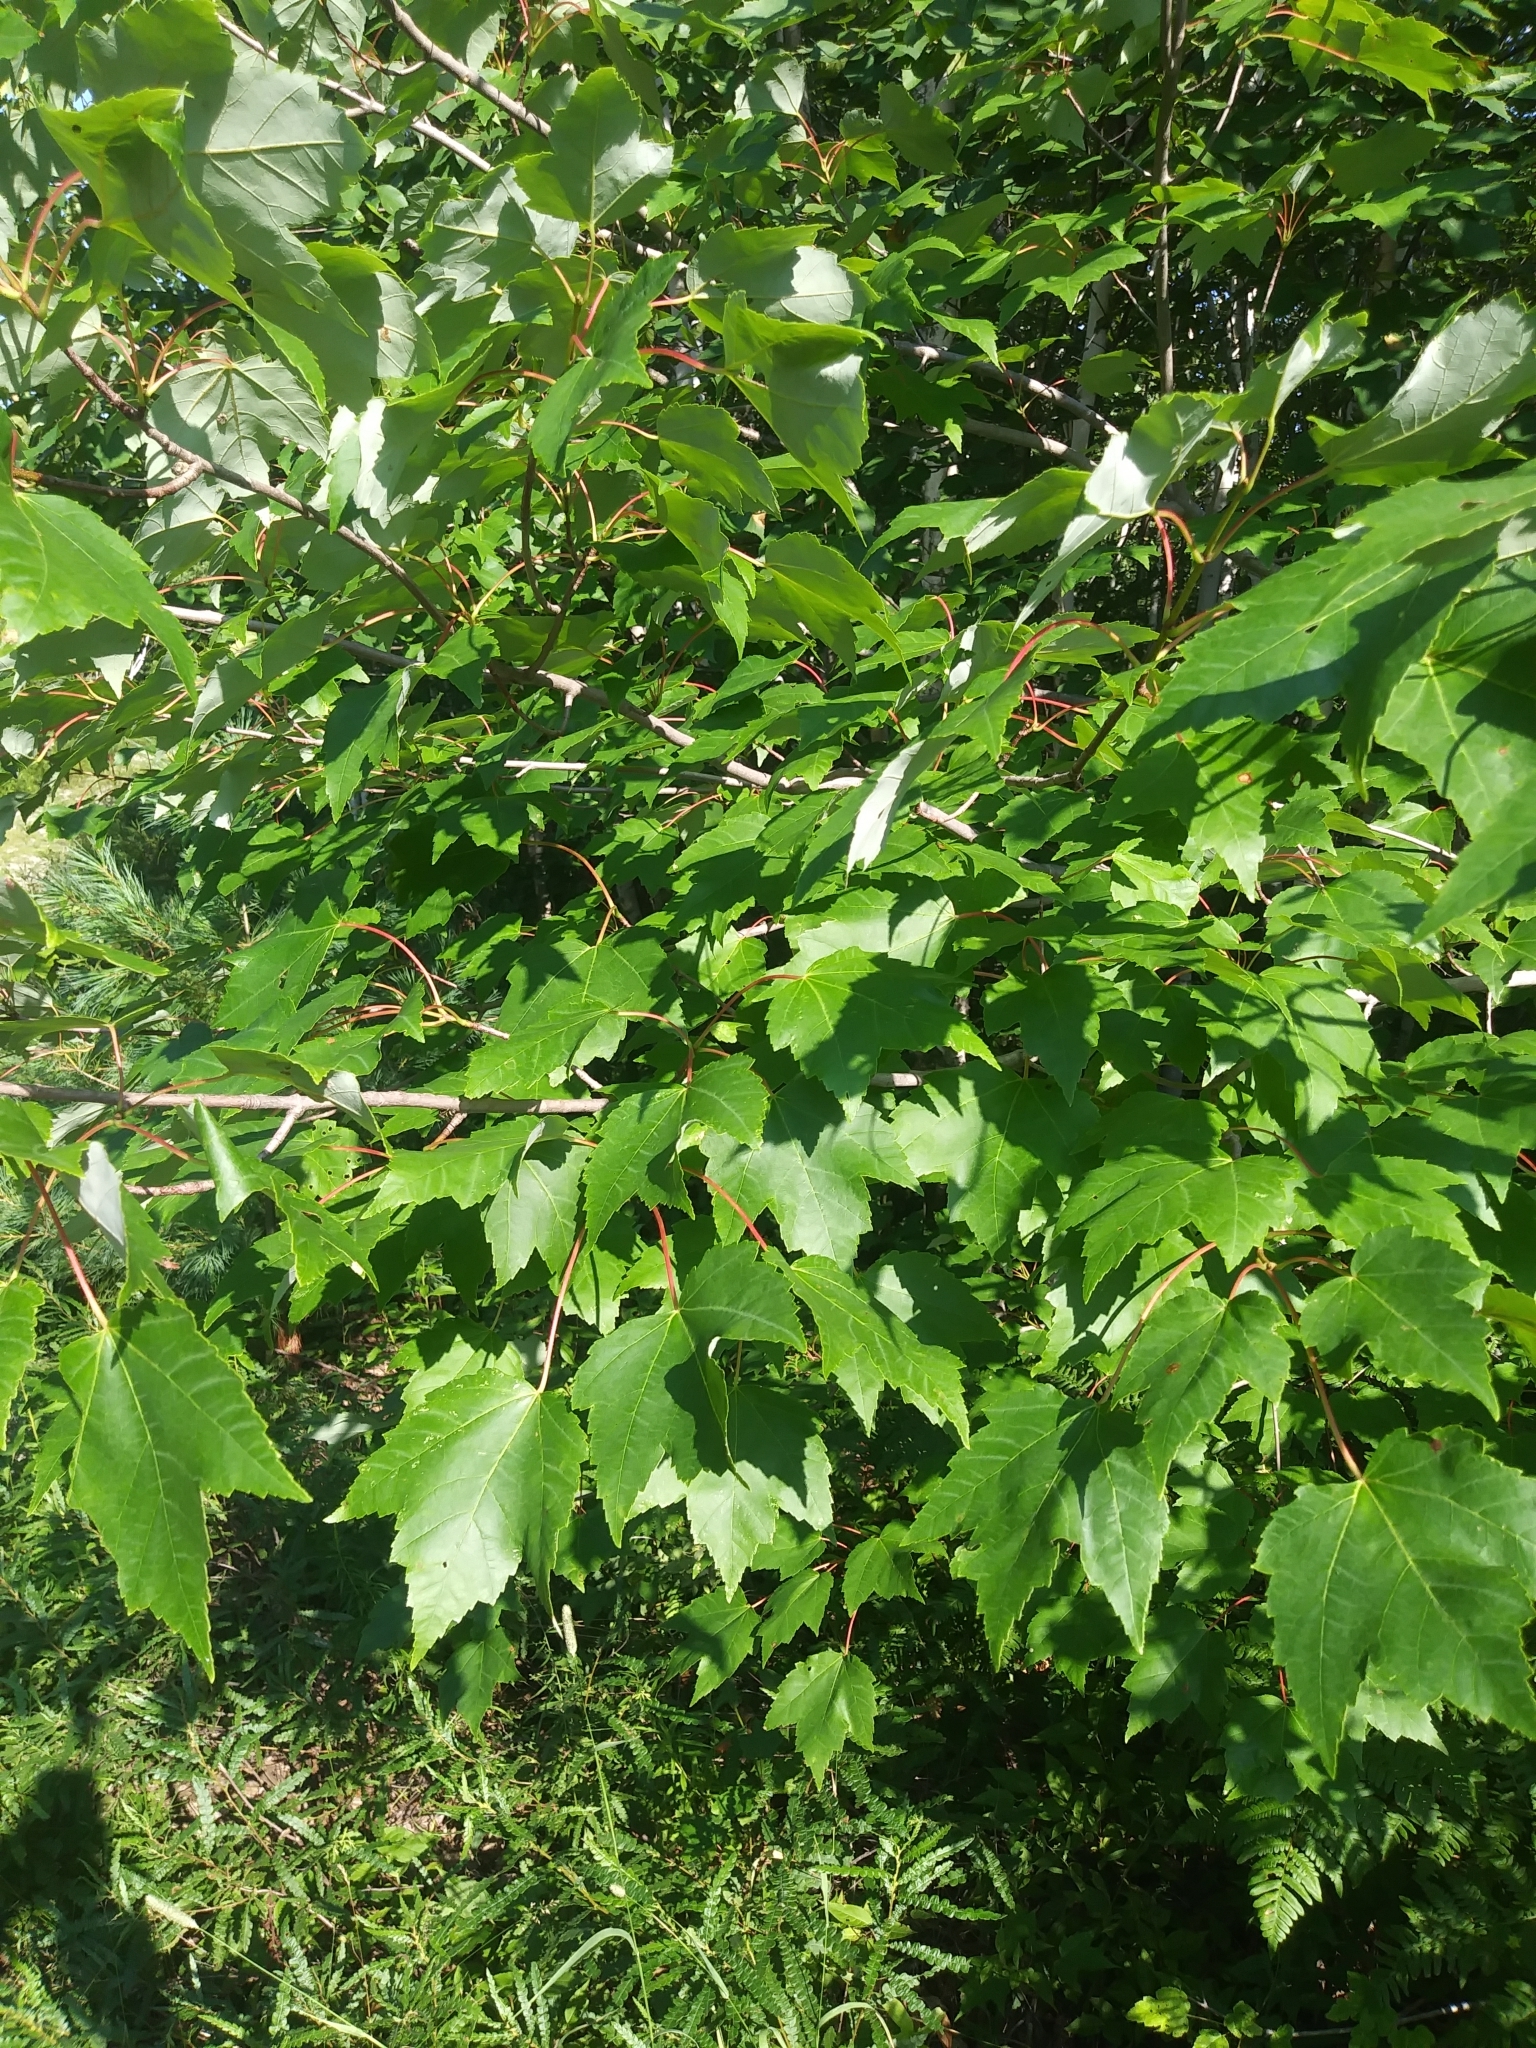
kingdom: Plantae
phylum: Tracheophyta
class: Magnoliopsida
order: Sapindales
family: Sapindaceae
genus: Acer
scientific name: Acer rubrum
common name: Red maple
